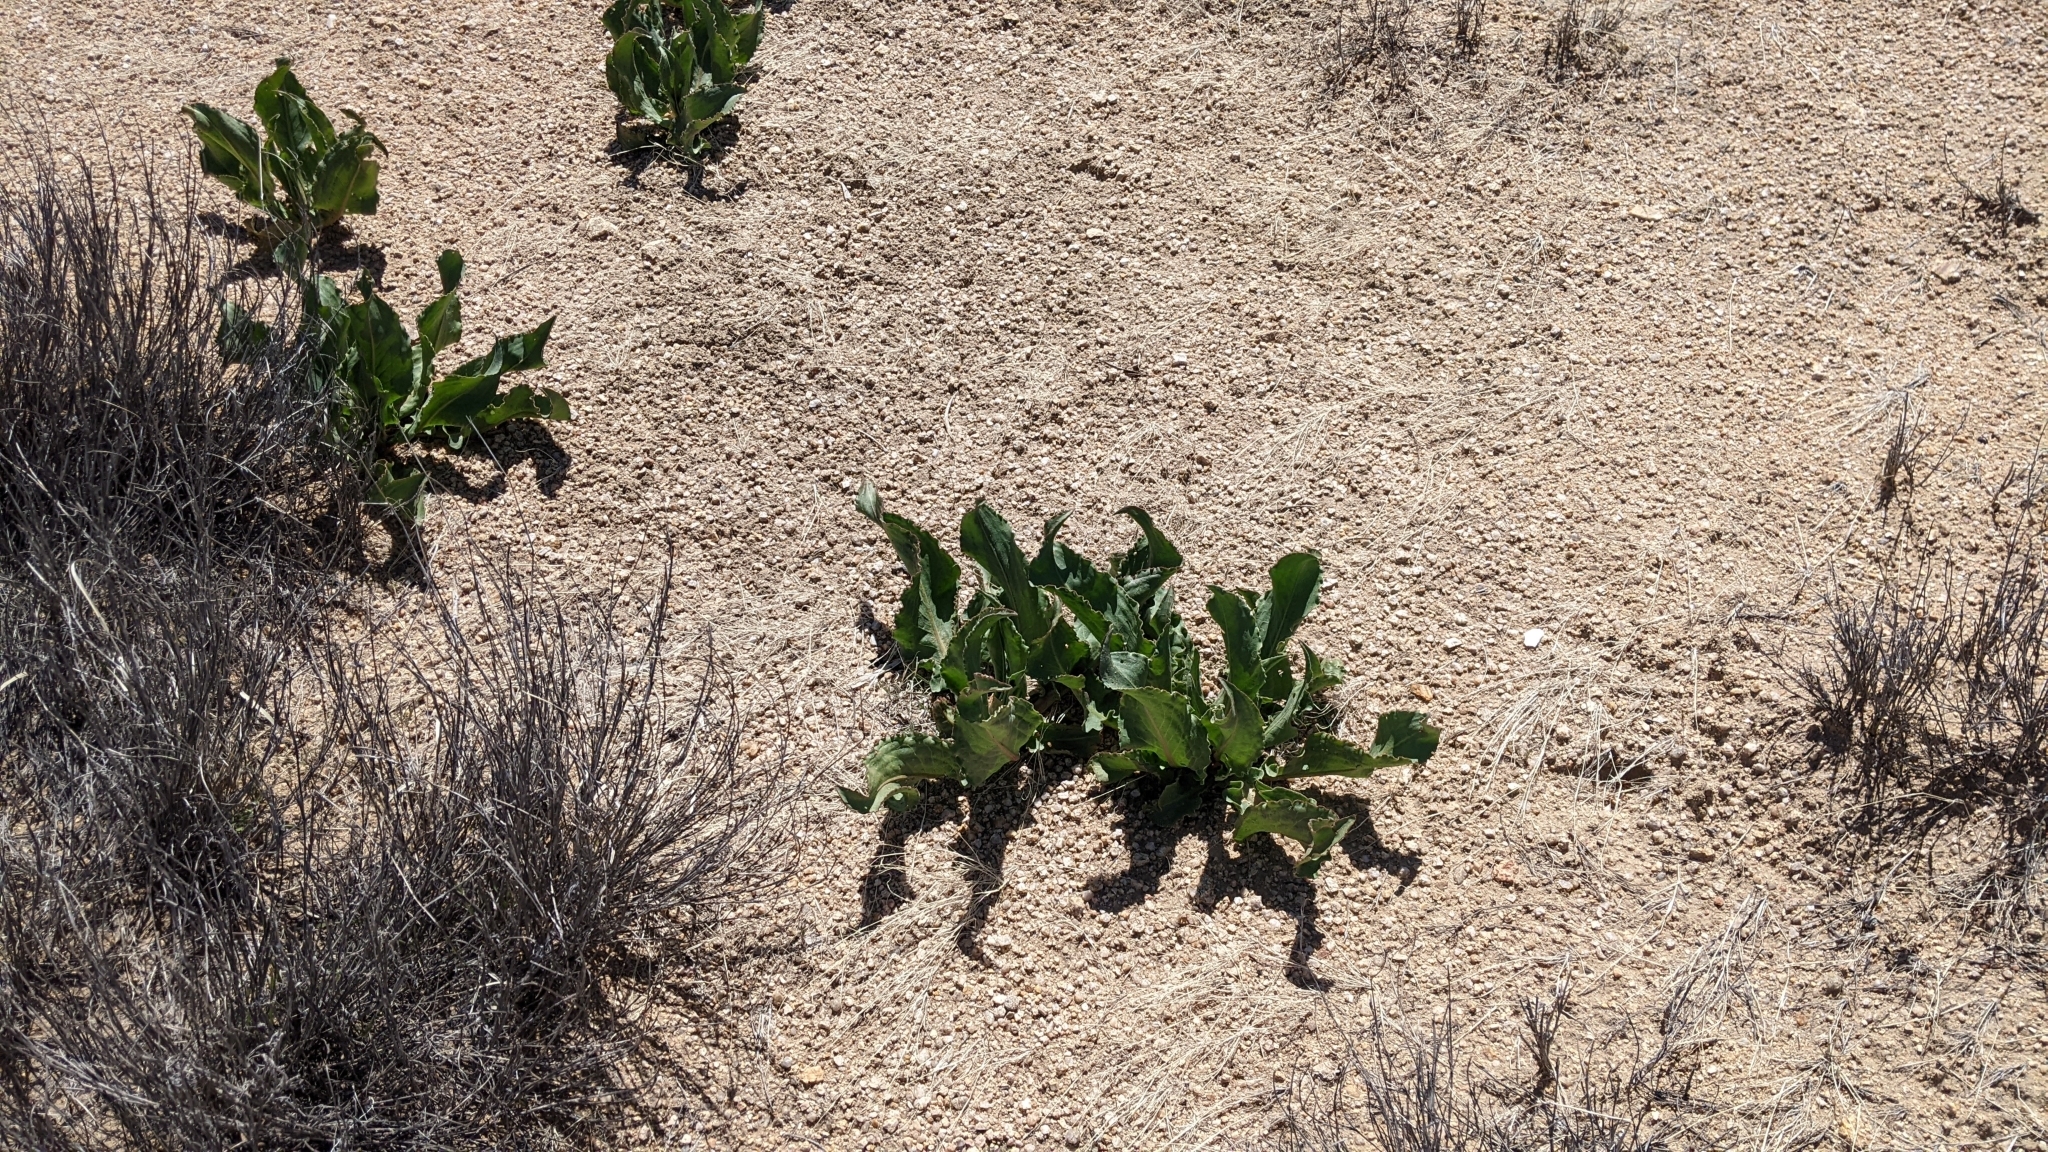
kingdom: Plantae
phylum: Tracheophyta
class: Magnoliopsida
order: Caryophyllales
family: Polygonaceae
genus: Rumex
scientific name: Rumex hymenosepalus
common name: Ganagra
